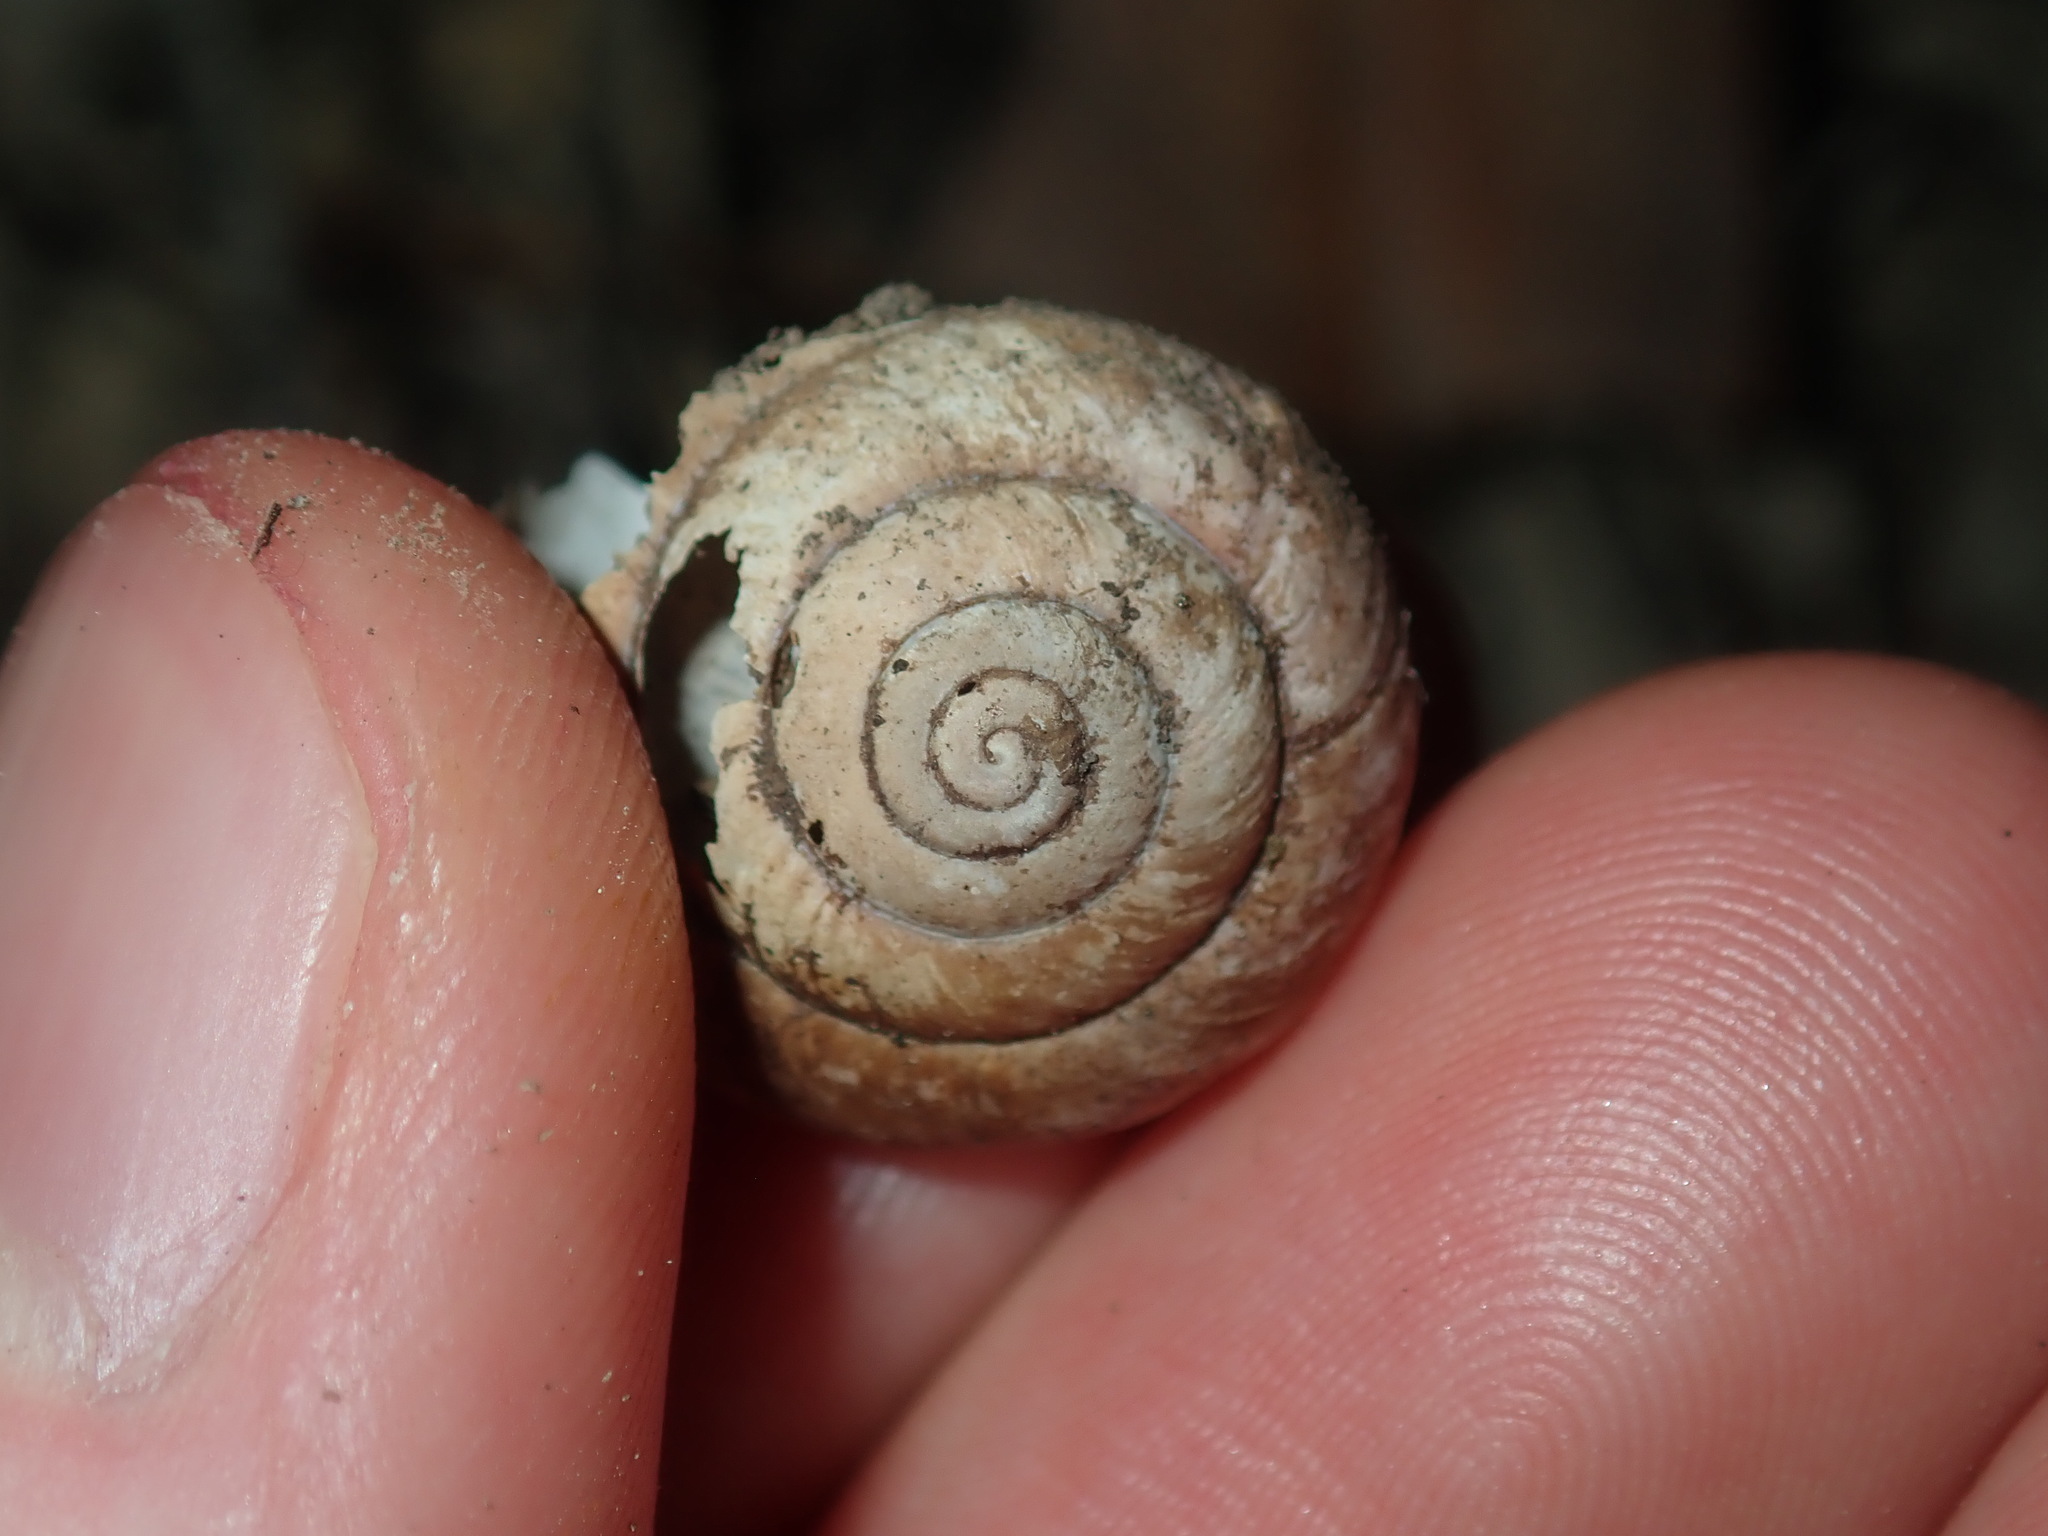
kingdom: Animalia
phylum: Mollusca
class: Gastropoda
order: Stylommatophora
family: Camaenidae
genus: Sauroconcha
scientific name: Sauroconcha sheai
